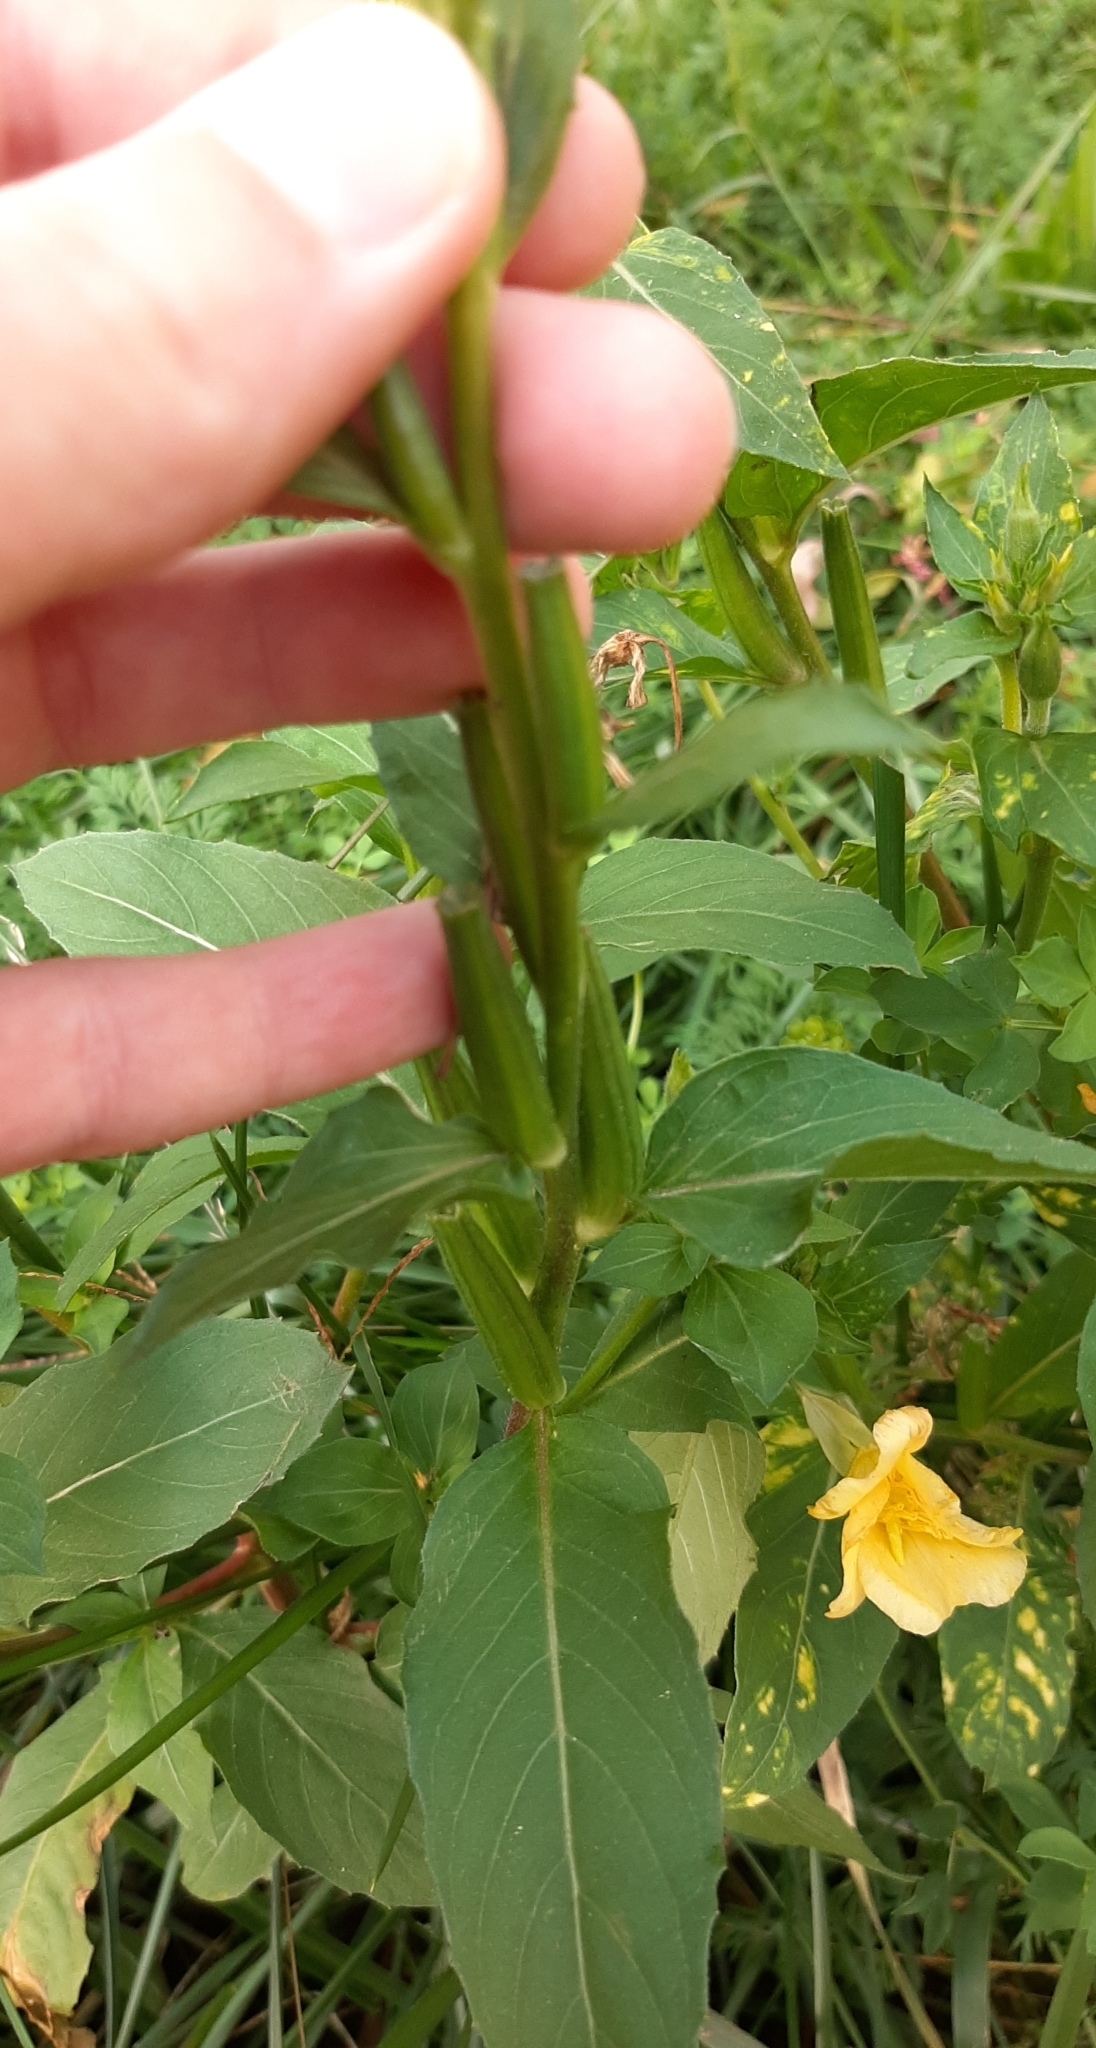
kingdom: Plantae
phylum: Tracheophyta
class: Magnoliopsida
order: Myrtales
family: Onagraceae
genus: Oenothera
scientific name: Oenothera biennis
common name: Common evening-primrose
